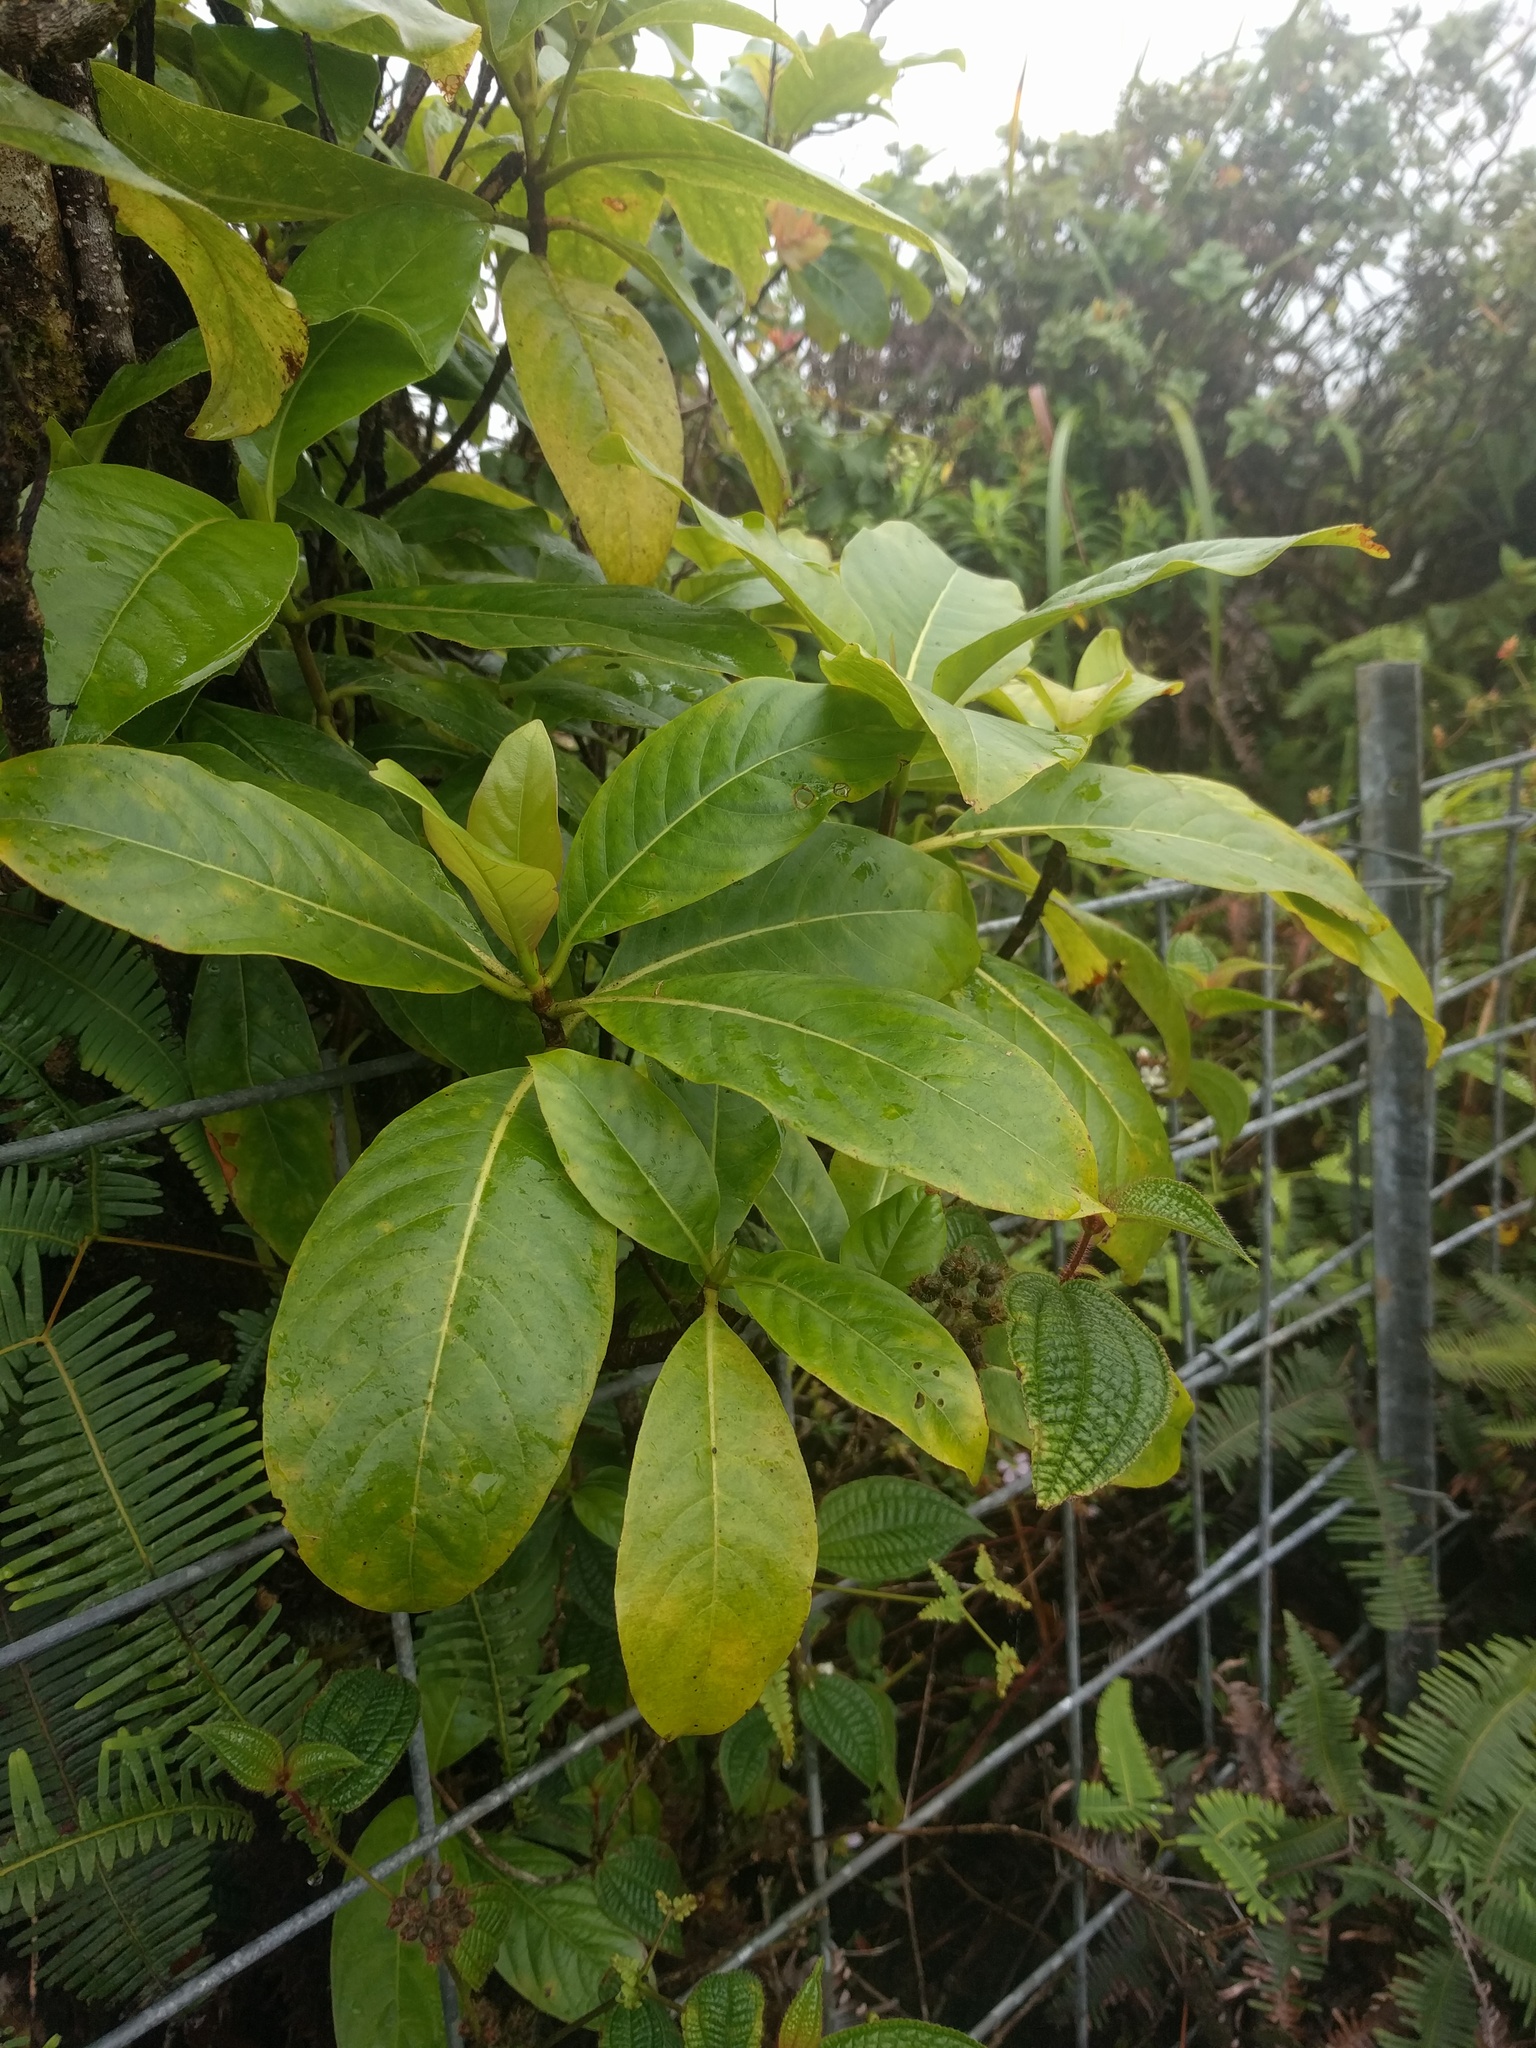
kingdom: Plantae
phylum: Tracheophyta
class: Magnoliopsida
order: Gentianales
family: Rubiaceae
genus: Bobea
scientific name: Bobea gaudichaudii
